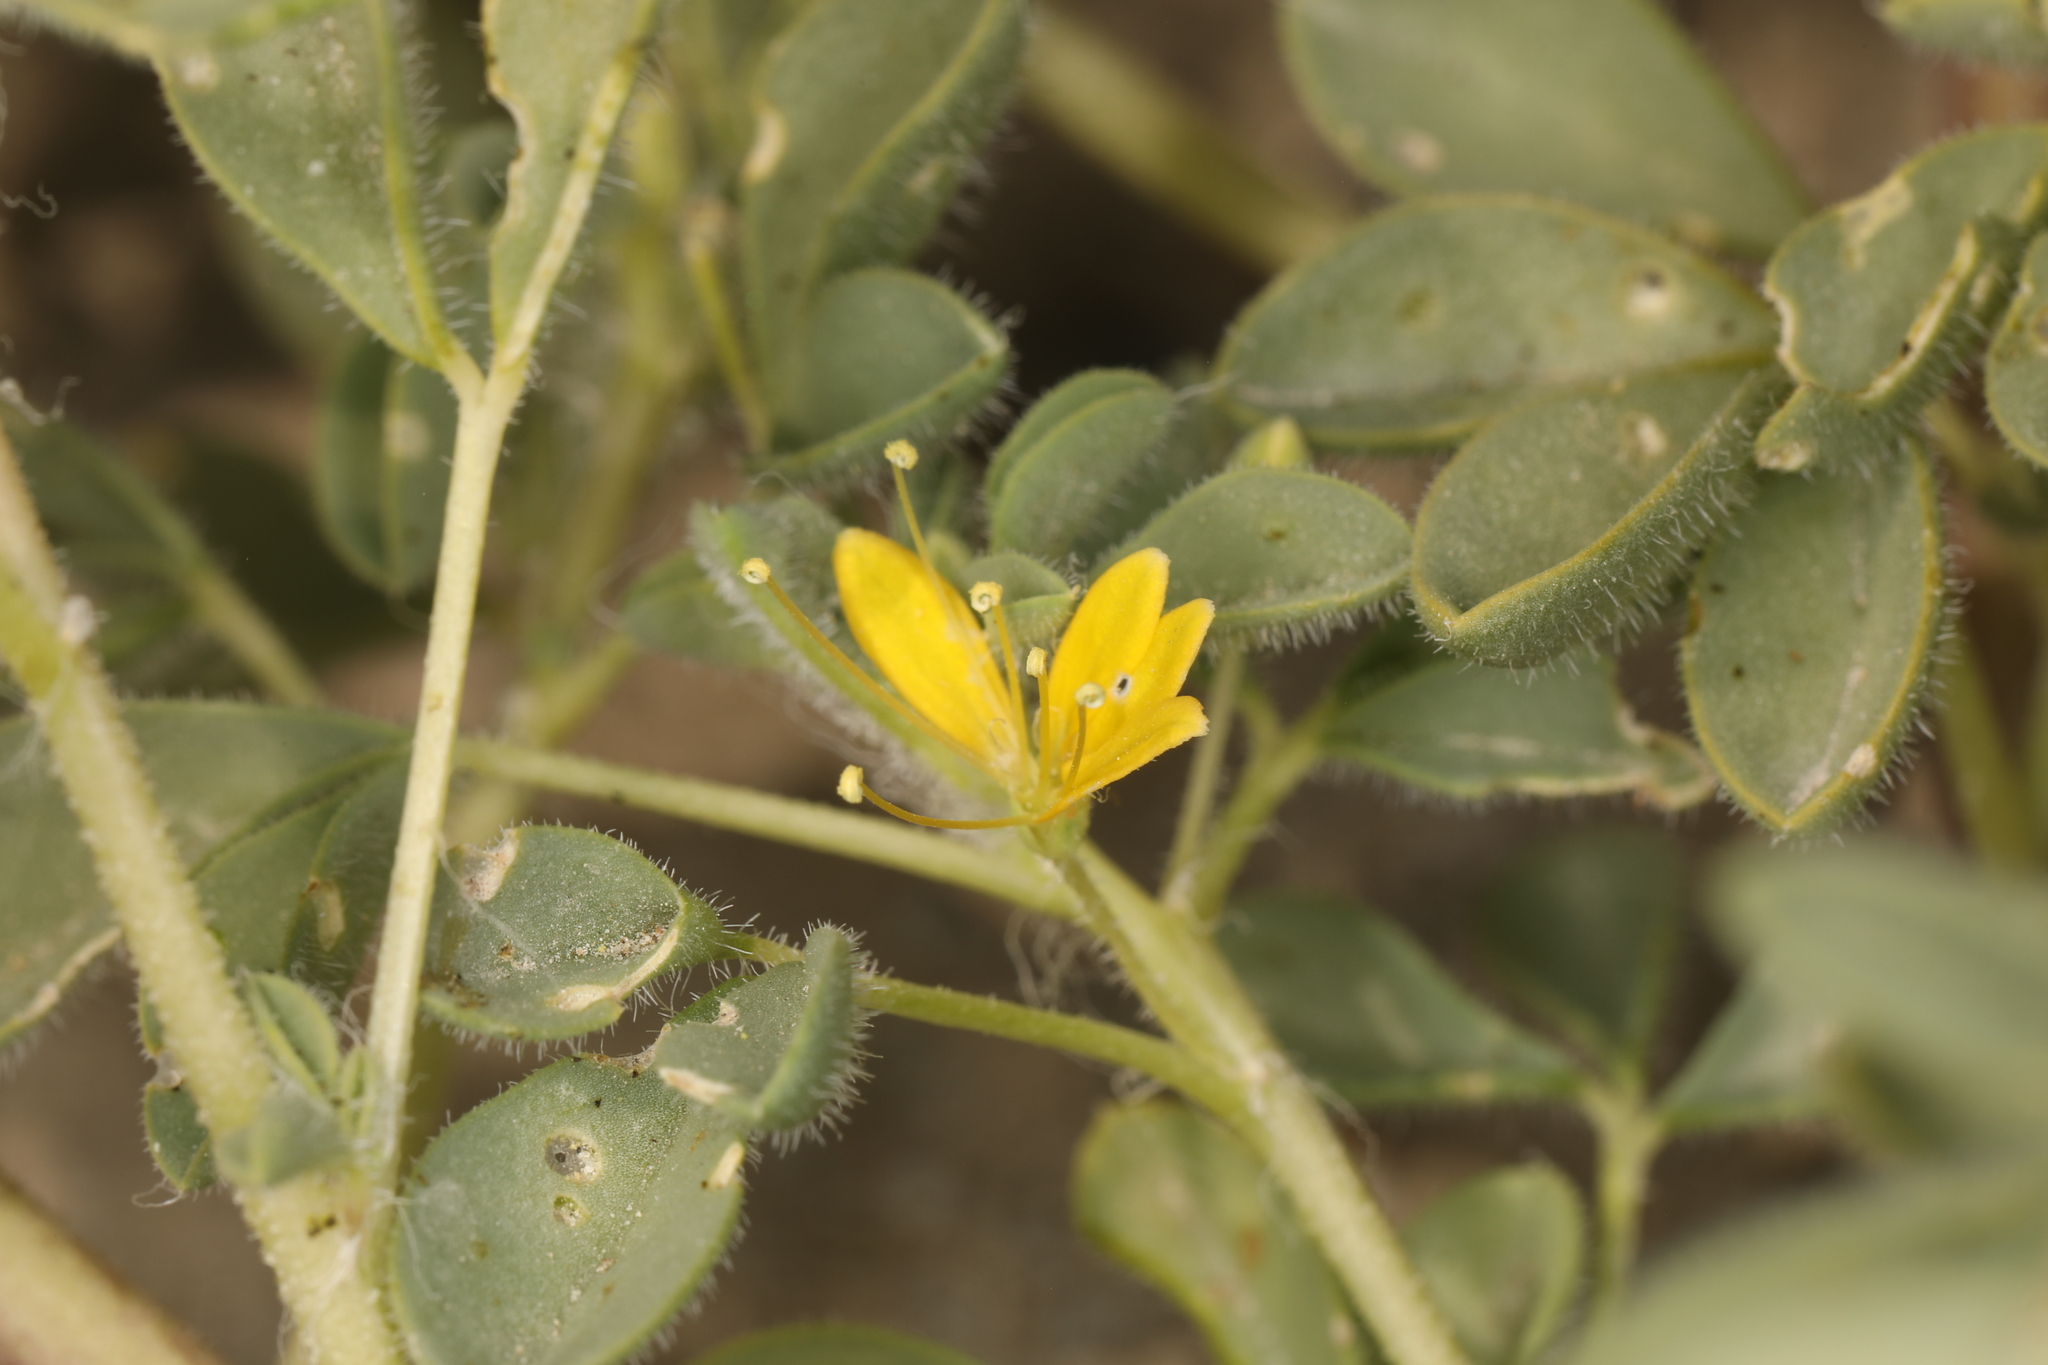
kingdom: Plantae
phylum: Tracheophyta
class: Magnoliopsida
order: Brassicales
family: Cleomaceae
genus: Cleomella
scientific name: Cleomella obtusifolia
